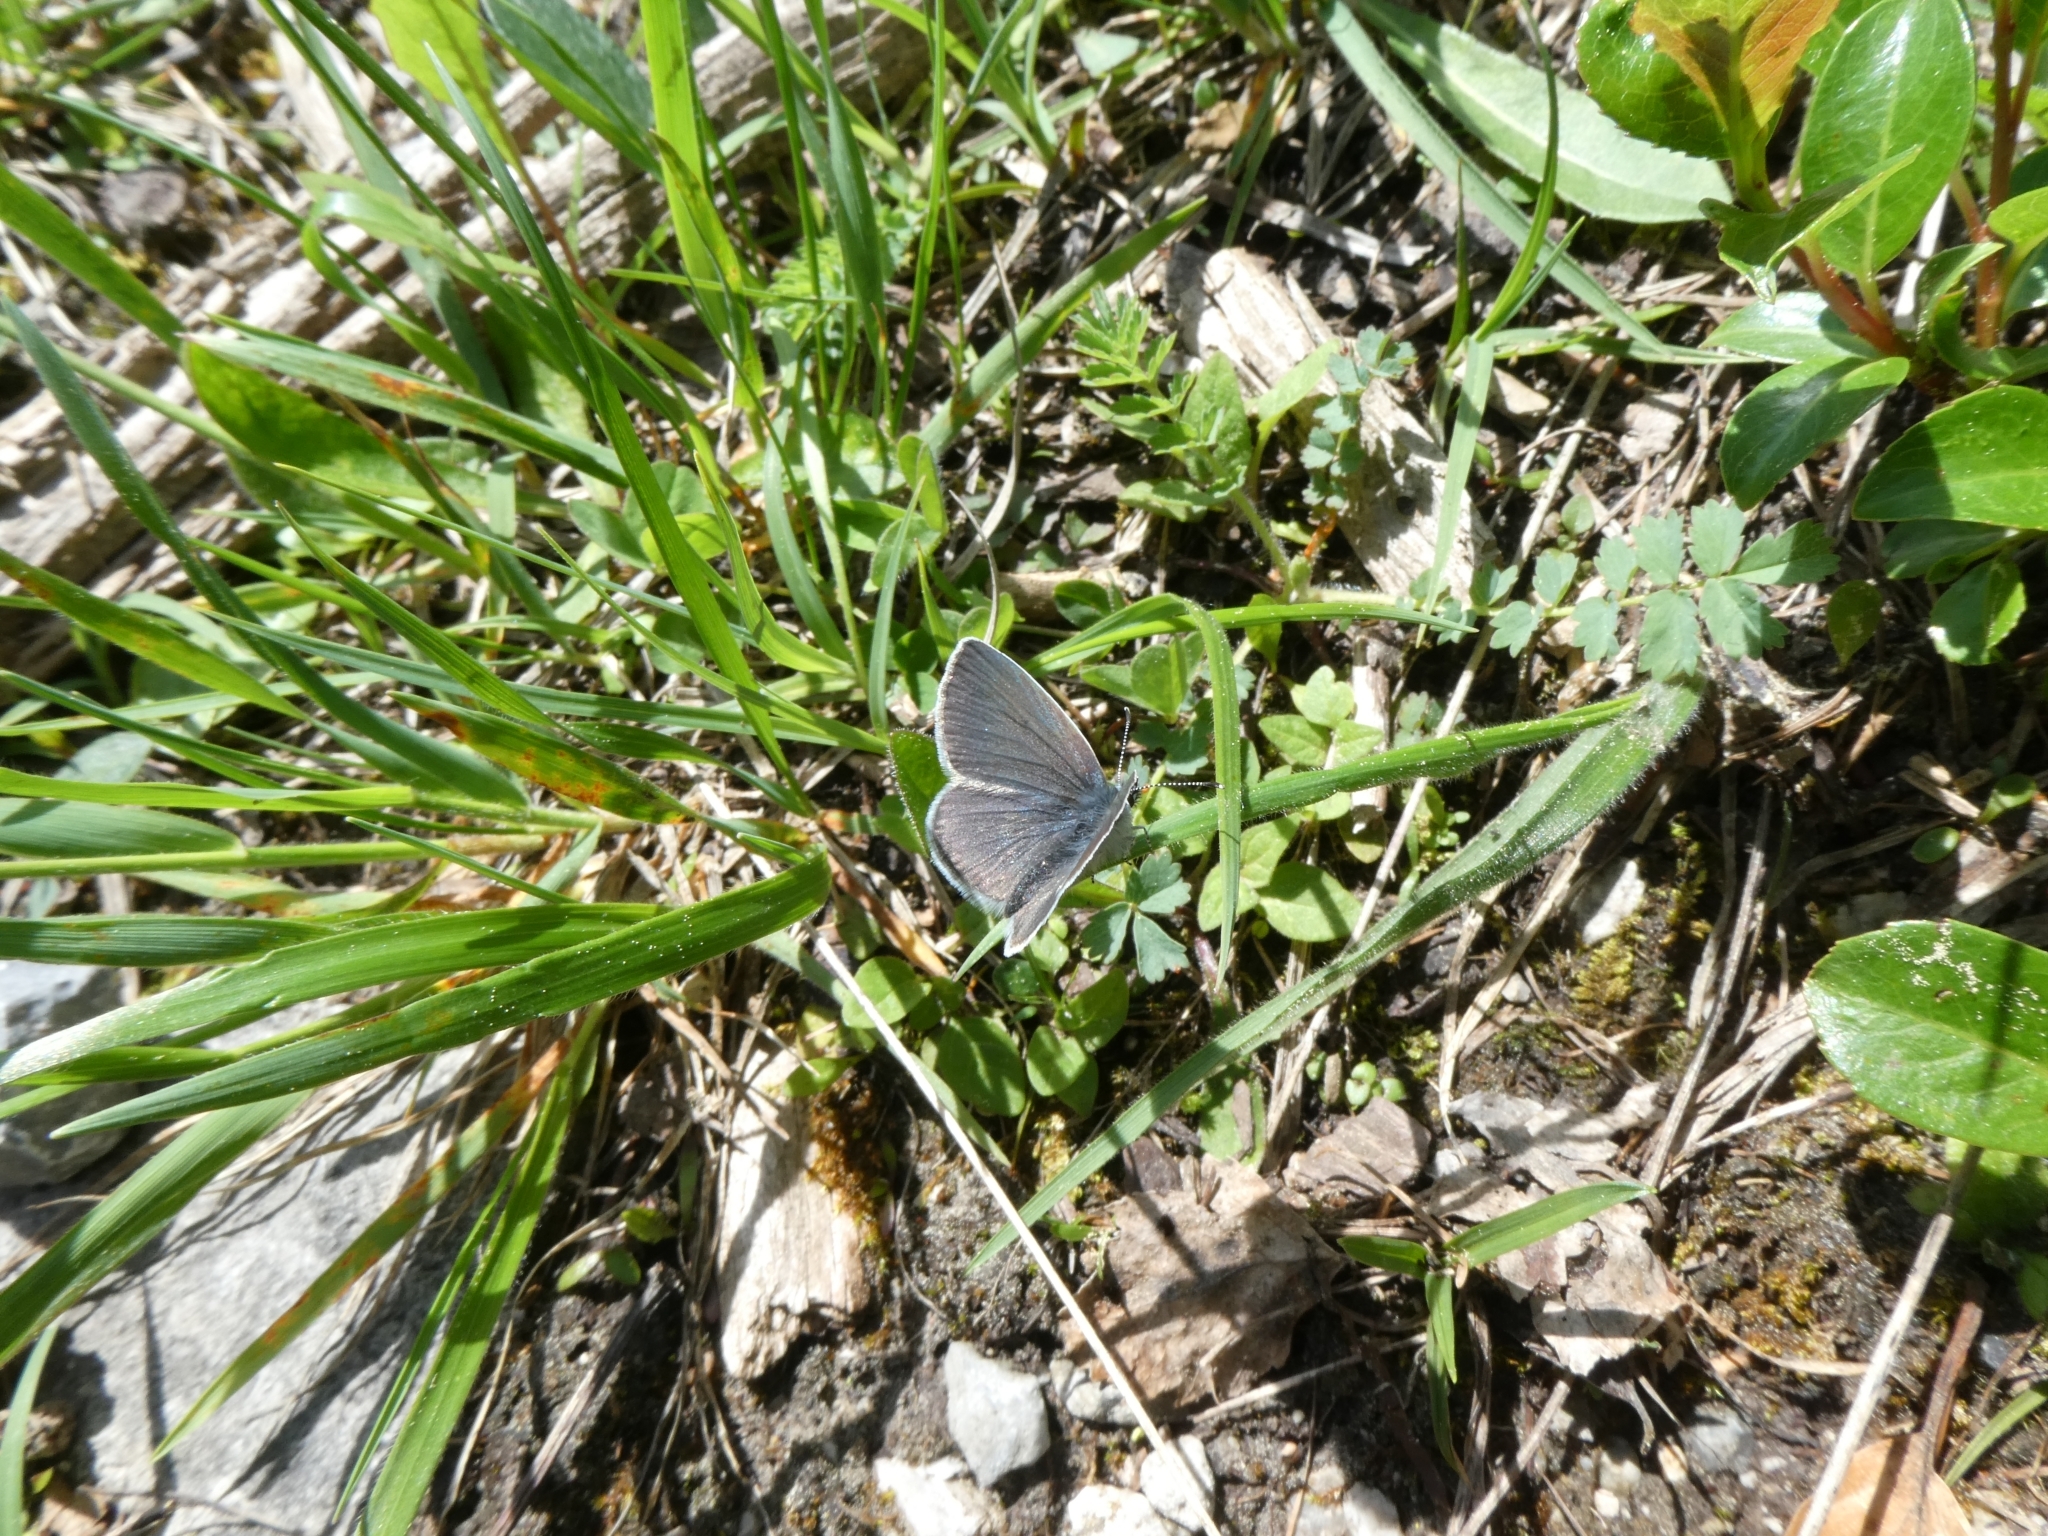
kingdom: Animalia
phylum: Arthropoda
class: Insecta
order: Lepidoptera
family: Lycaenidae
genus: Cupido
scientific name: Cupido minimus
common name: Small blue
